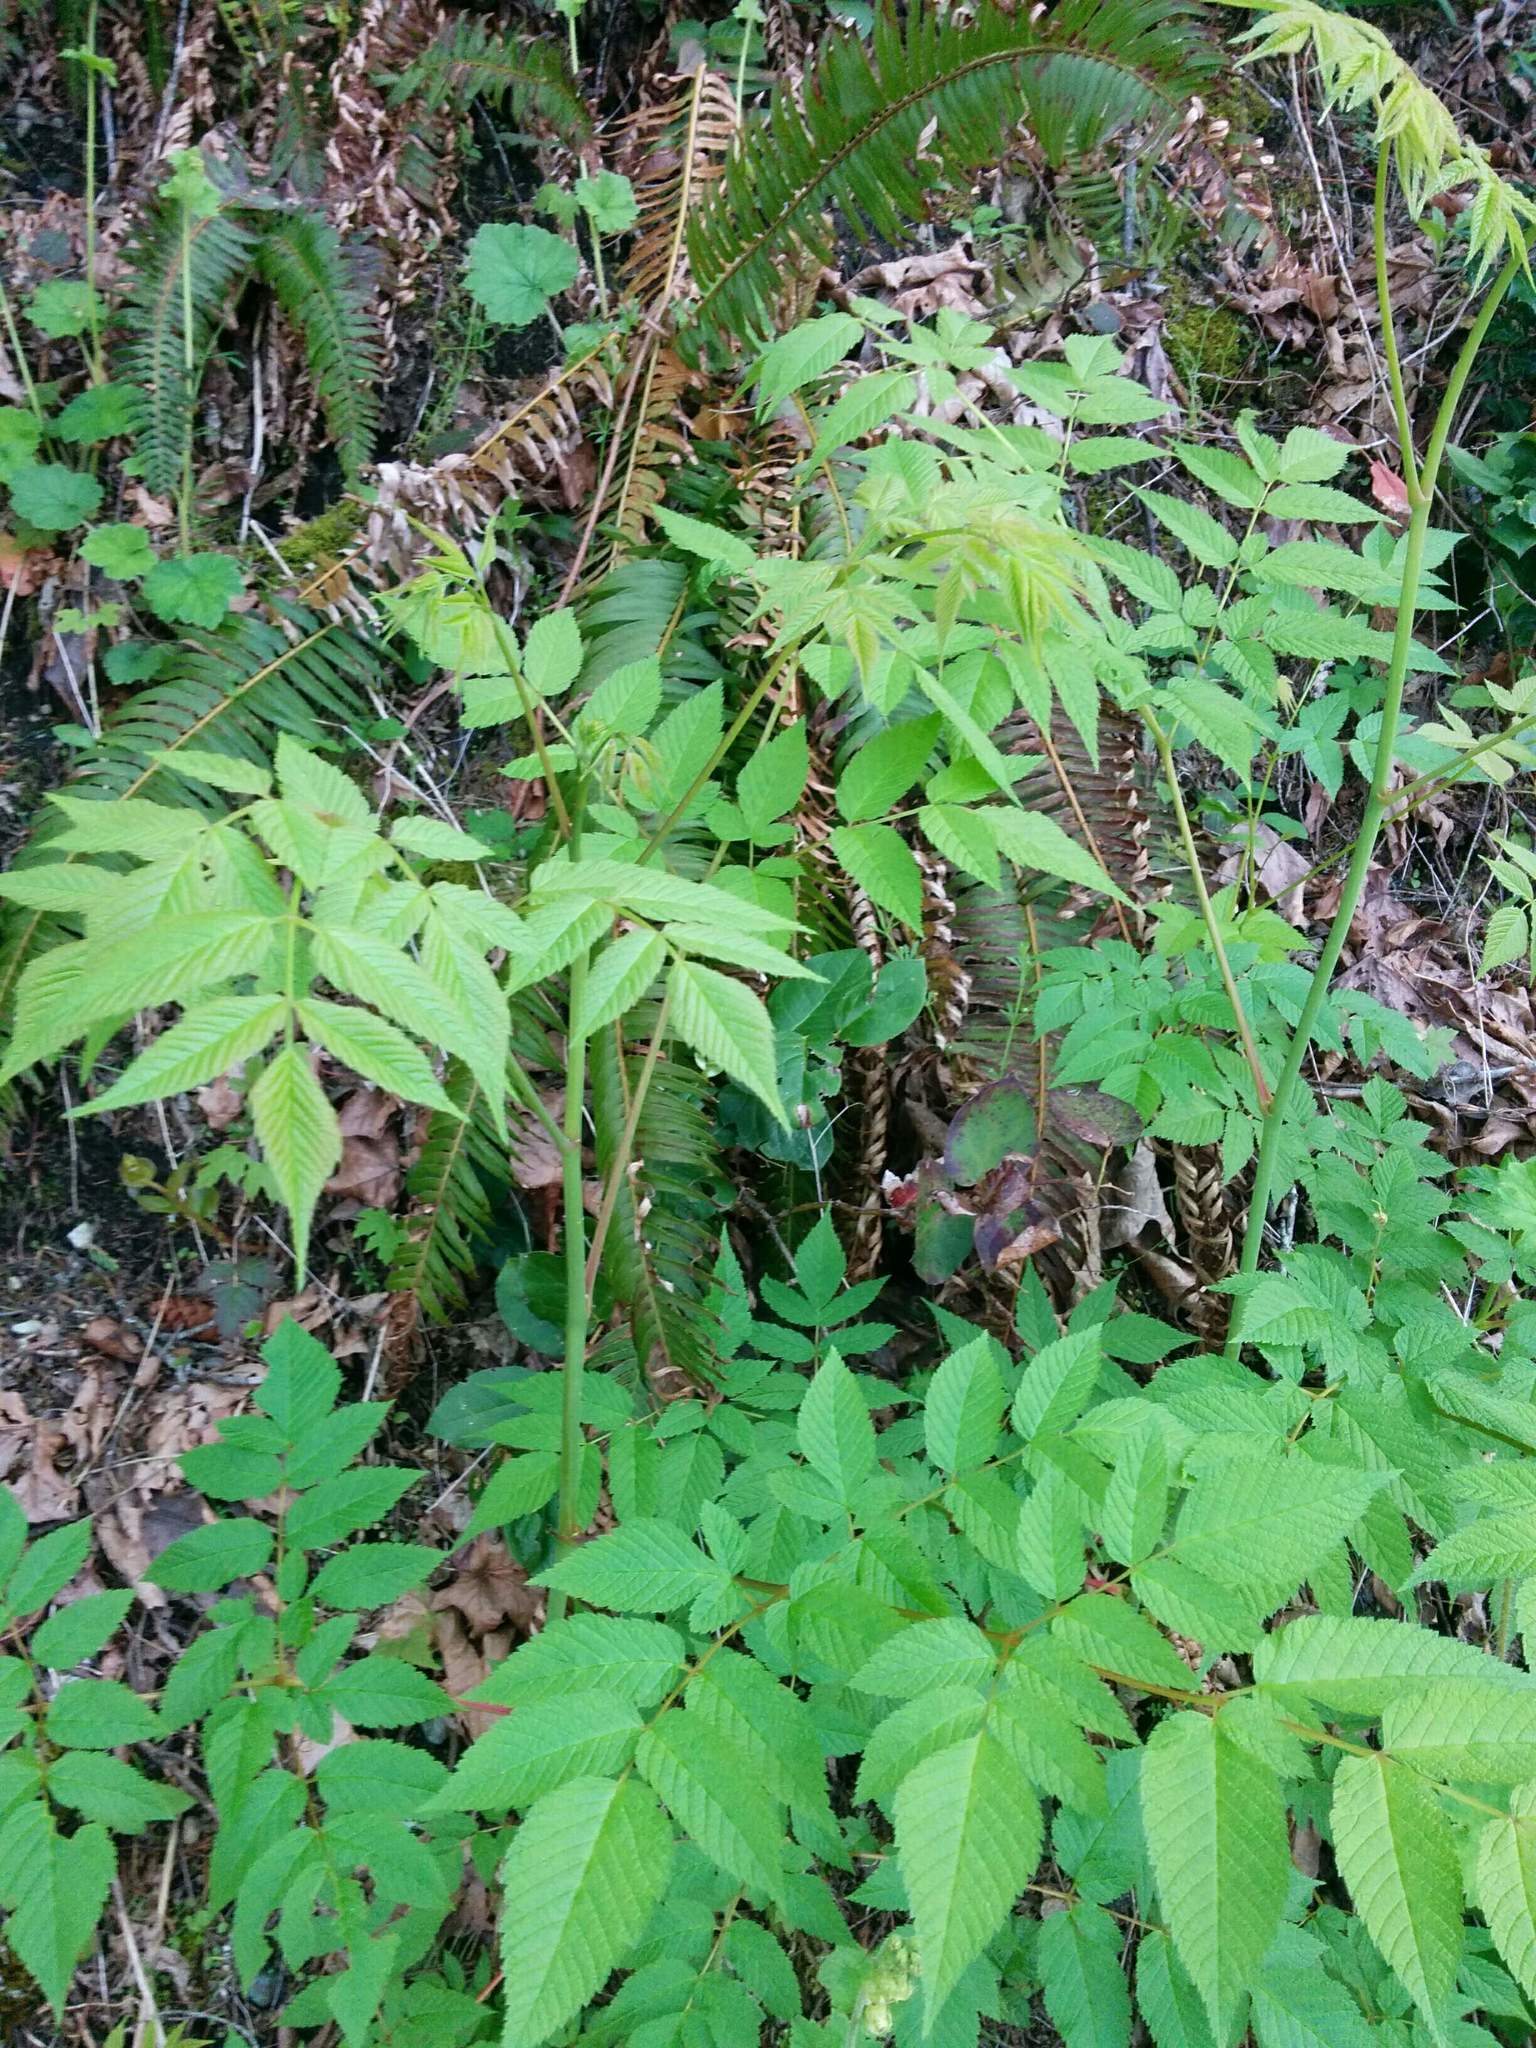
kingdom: Plantae
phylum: Tracheophyta
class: Magnoliopsida
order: Rosales
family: Rosaceae
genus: Aruncus
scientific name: Aruncus dioicus
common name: Buck's-beard
